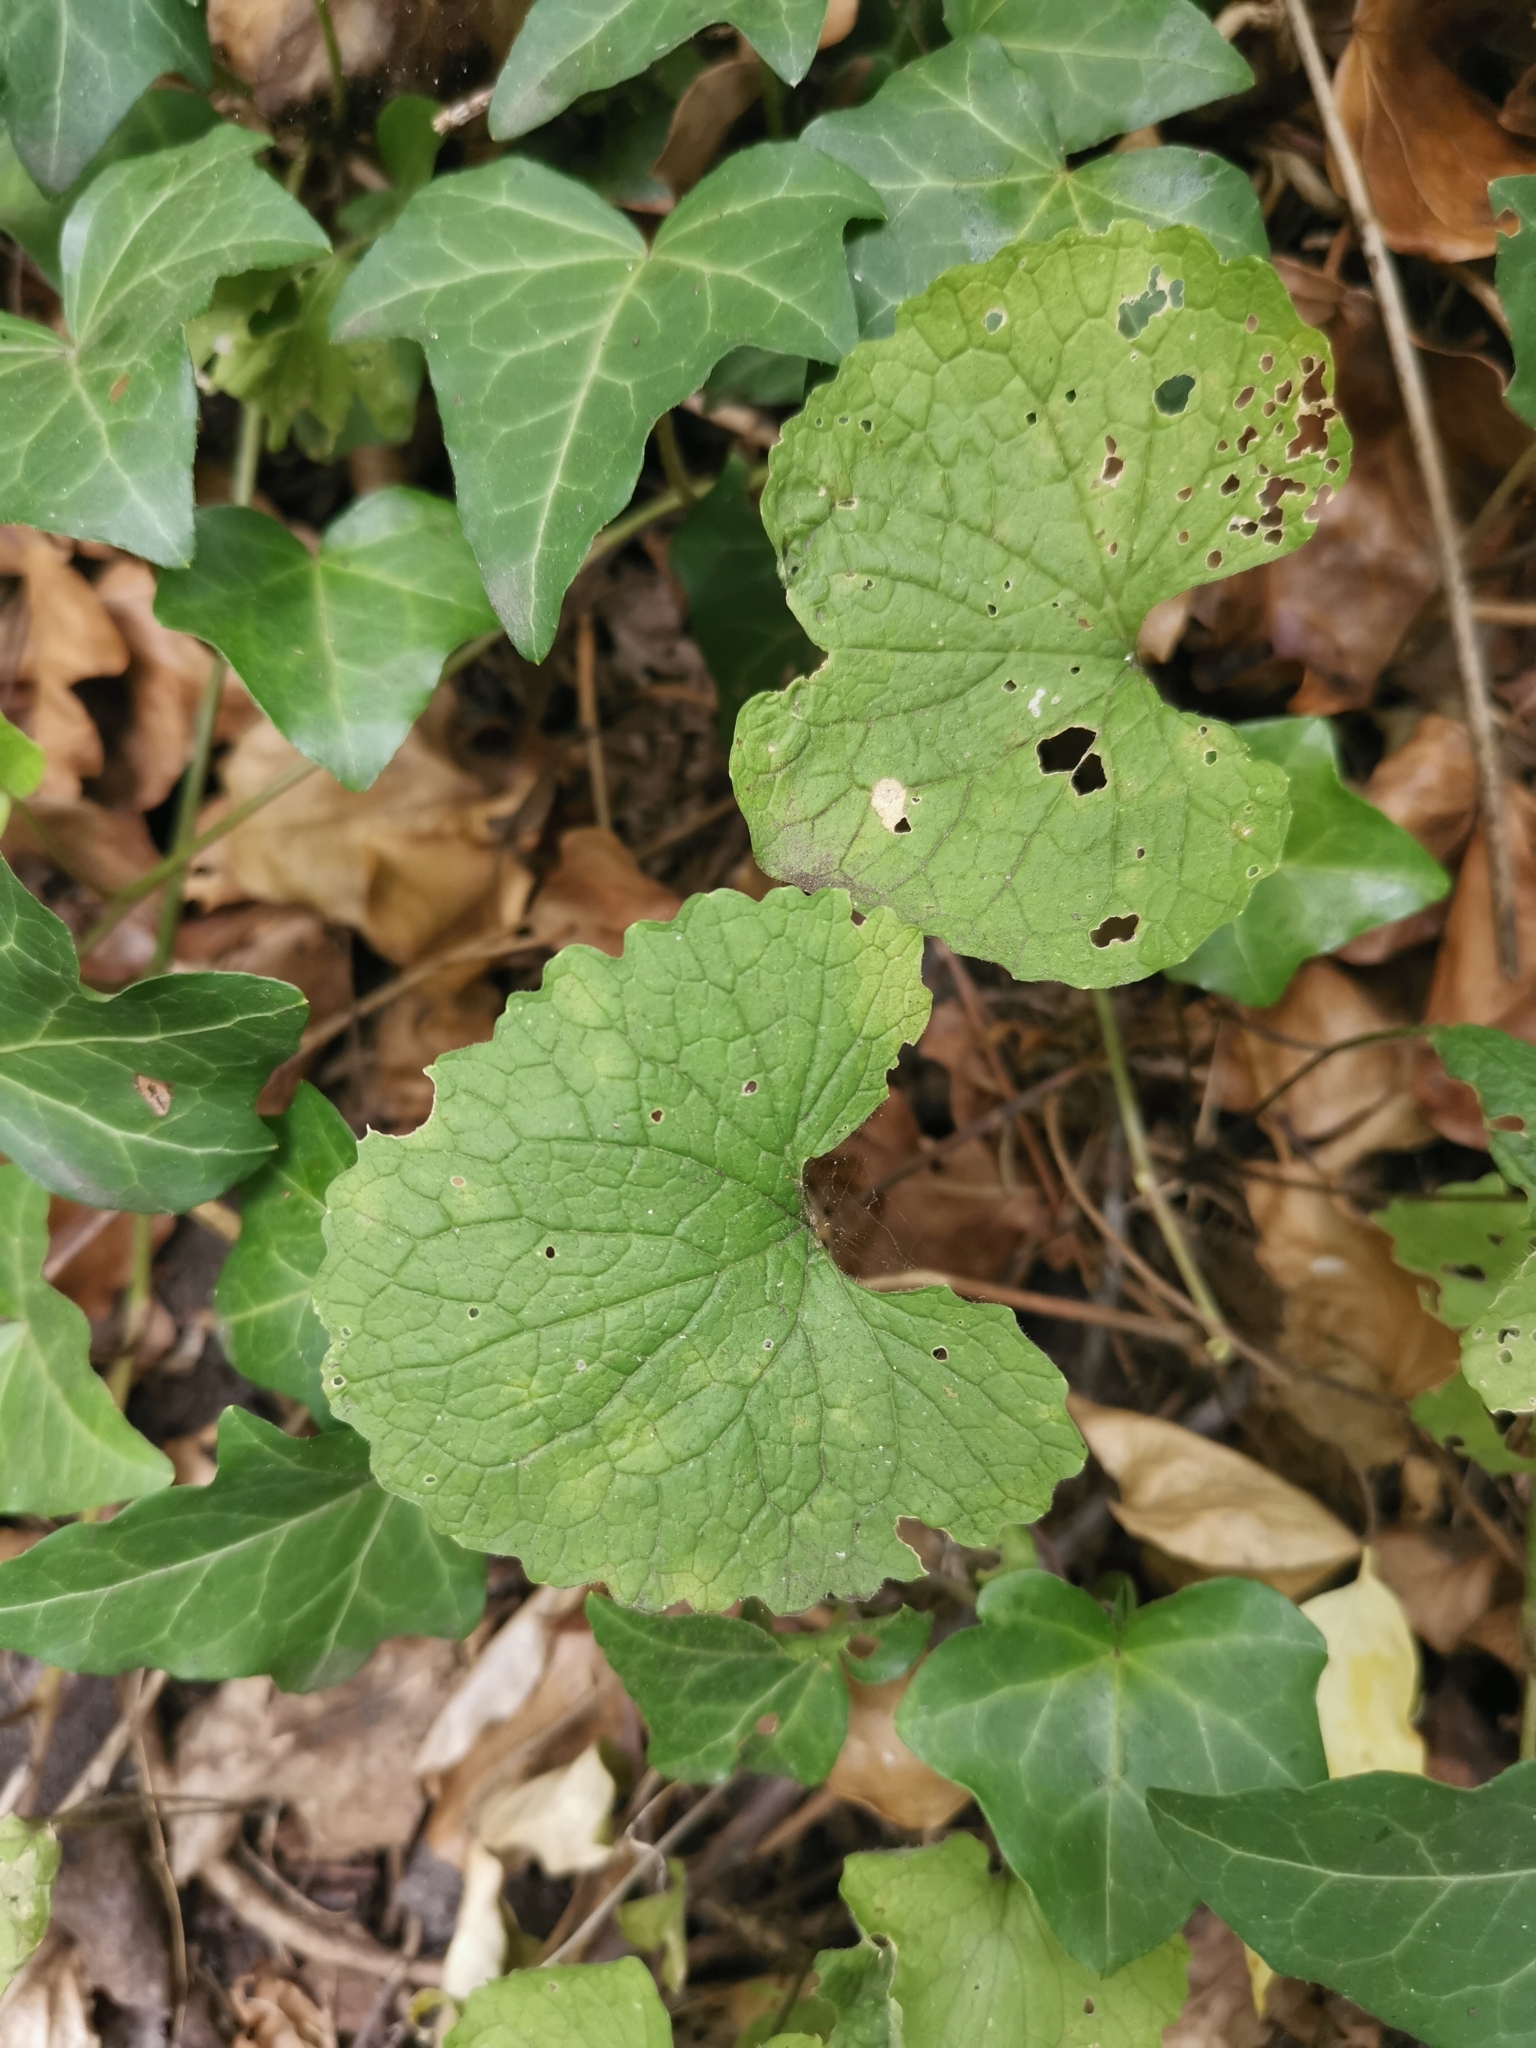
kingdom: Plantae
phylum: Tracheophyta
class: Magnoliopsida
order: Brassicales
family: Brassicaceae
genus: Alliaria
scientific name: Alliaria petiolata
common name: Garlic mustard
